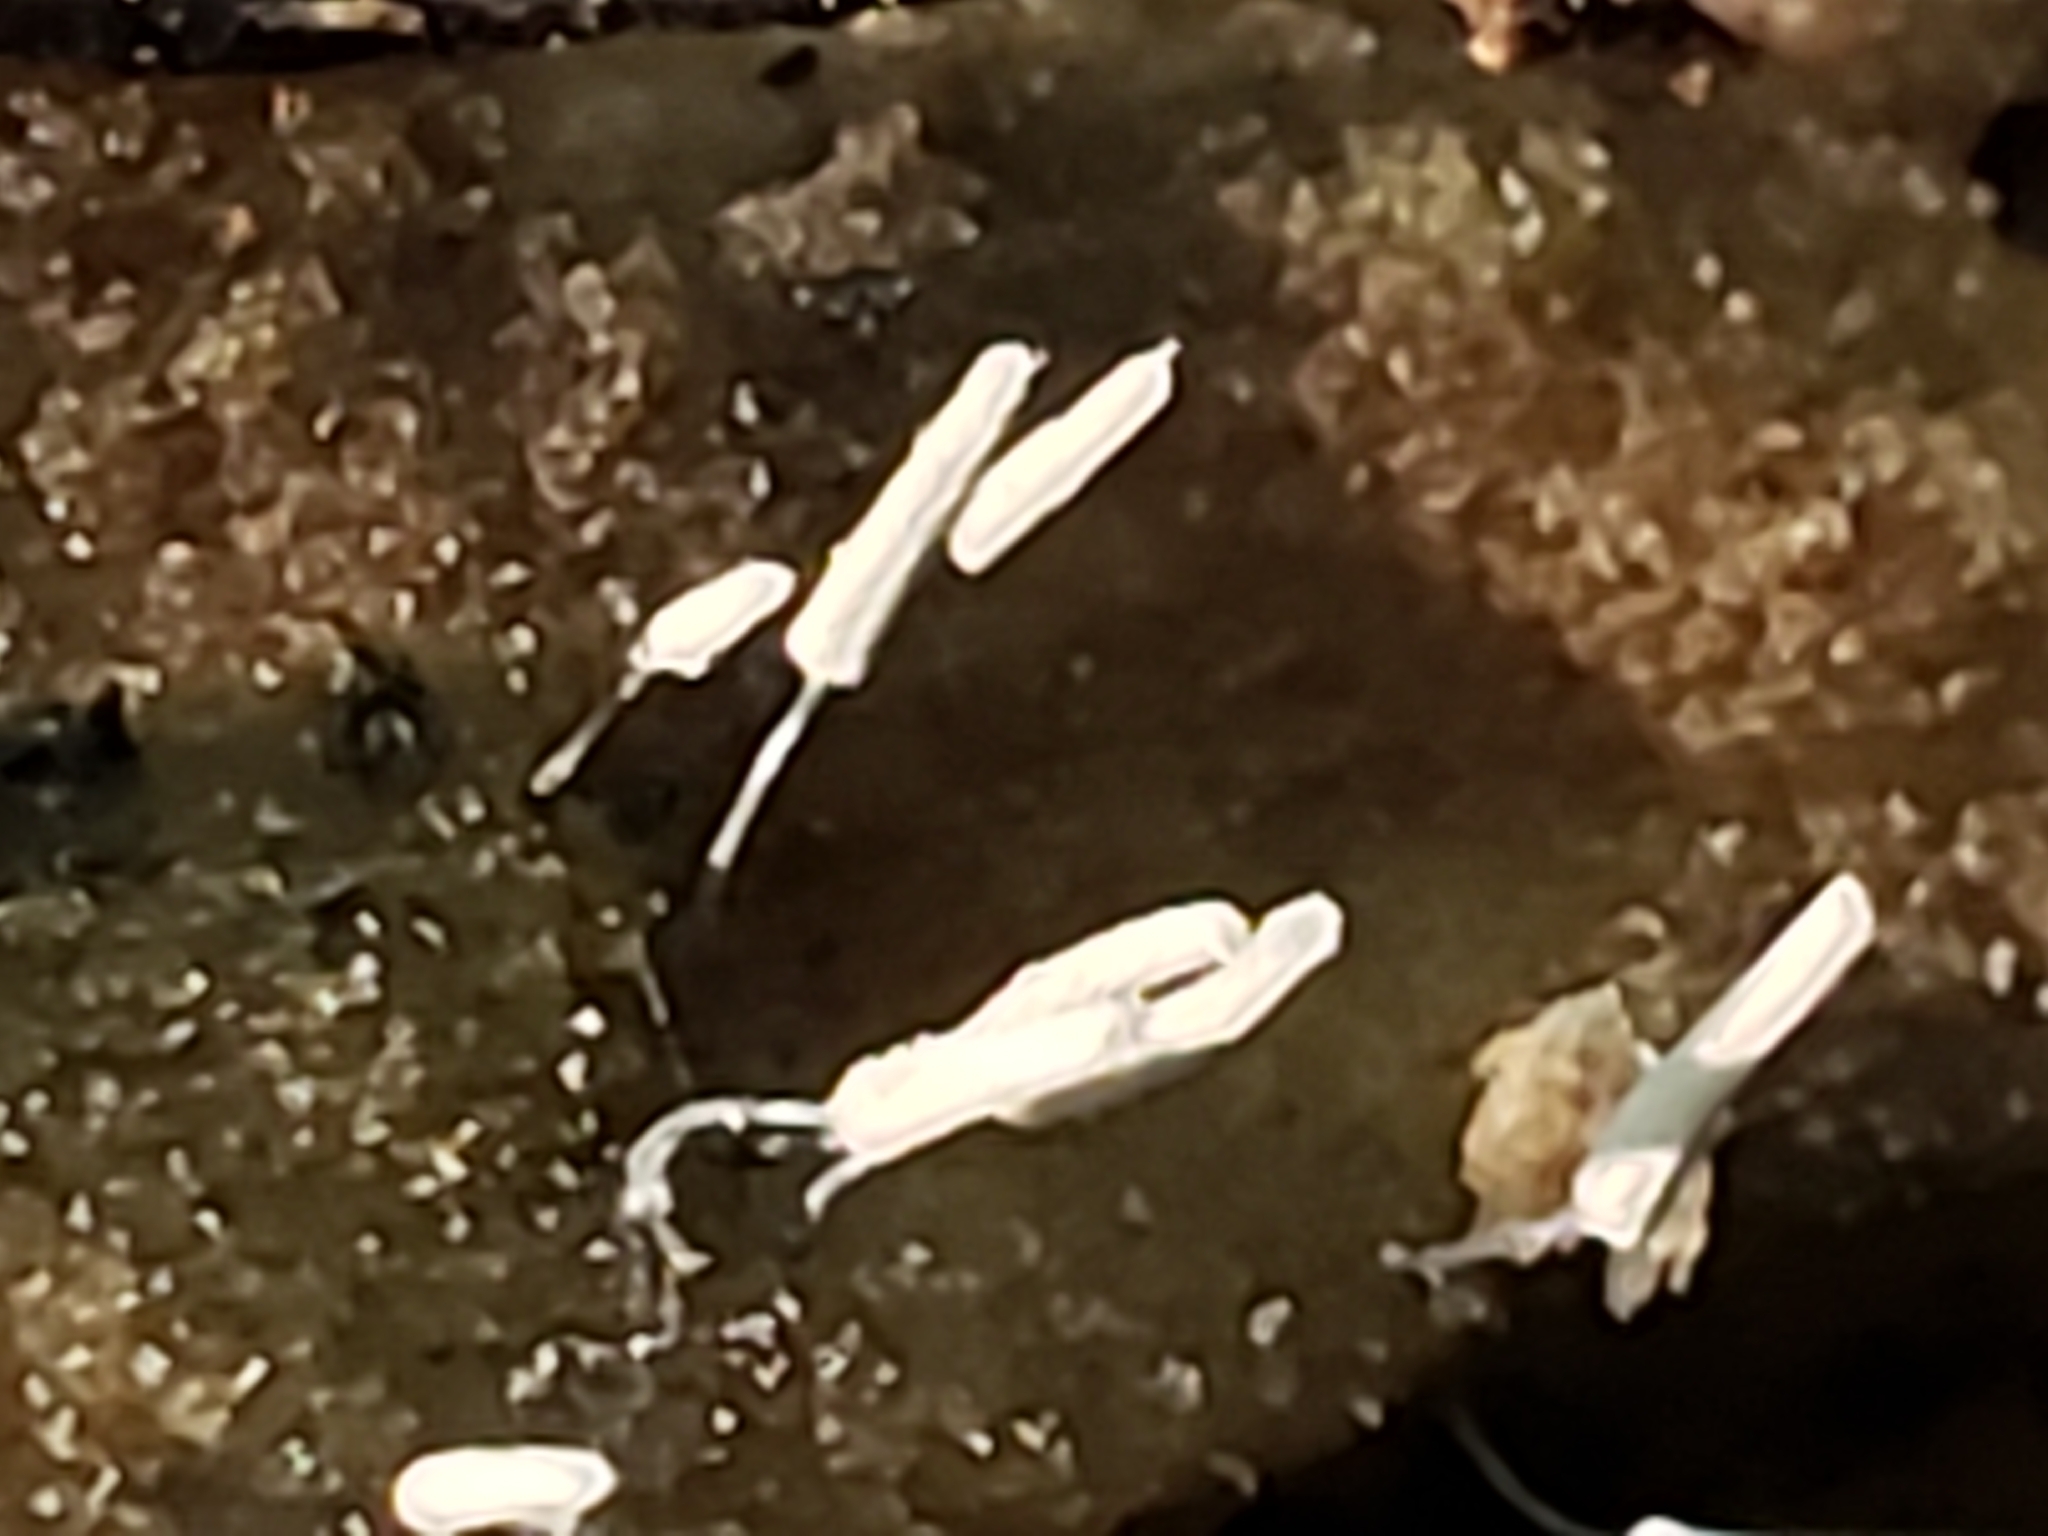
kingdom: Protozoa
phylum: Mycetozoa
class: Myxomycetes
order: Trichiales
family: Arcyriaceae
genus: Arcyria
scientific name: Arcyria cinerea
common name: White carnival candy slime mold
